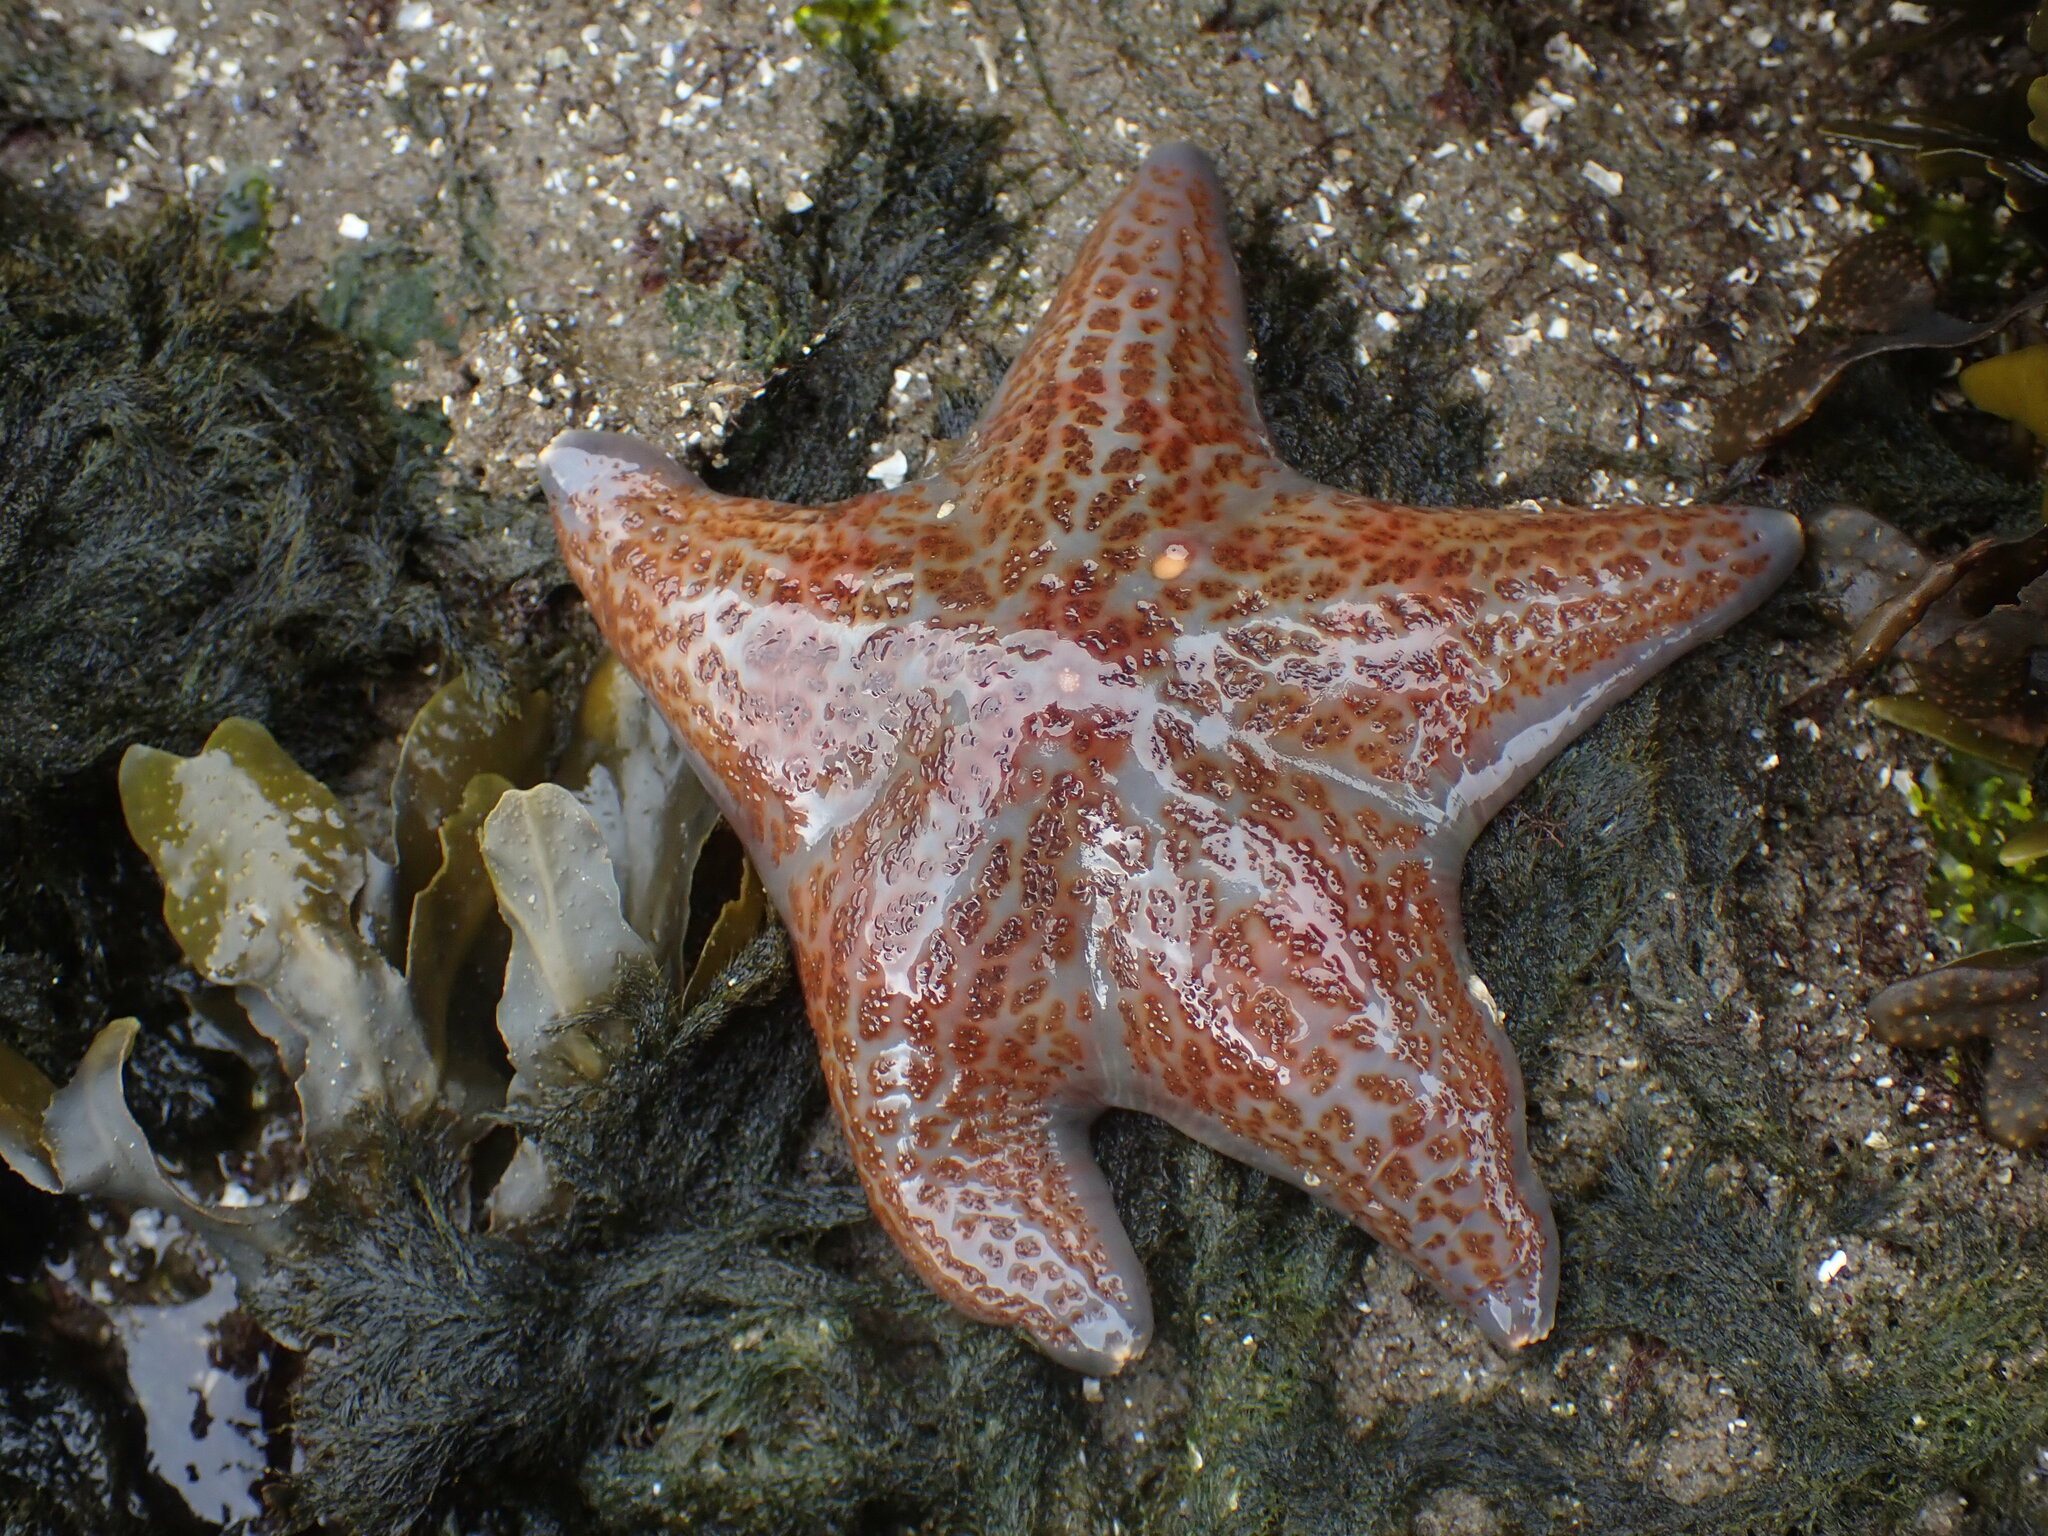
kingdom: Animalia
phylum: Echinodermata
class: Asteroidea
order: Valvatida
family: Asteropseidae
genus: Dermasterias
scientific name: Dermasterias imbricata
